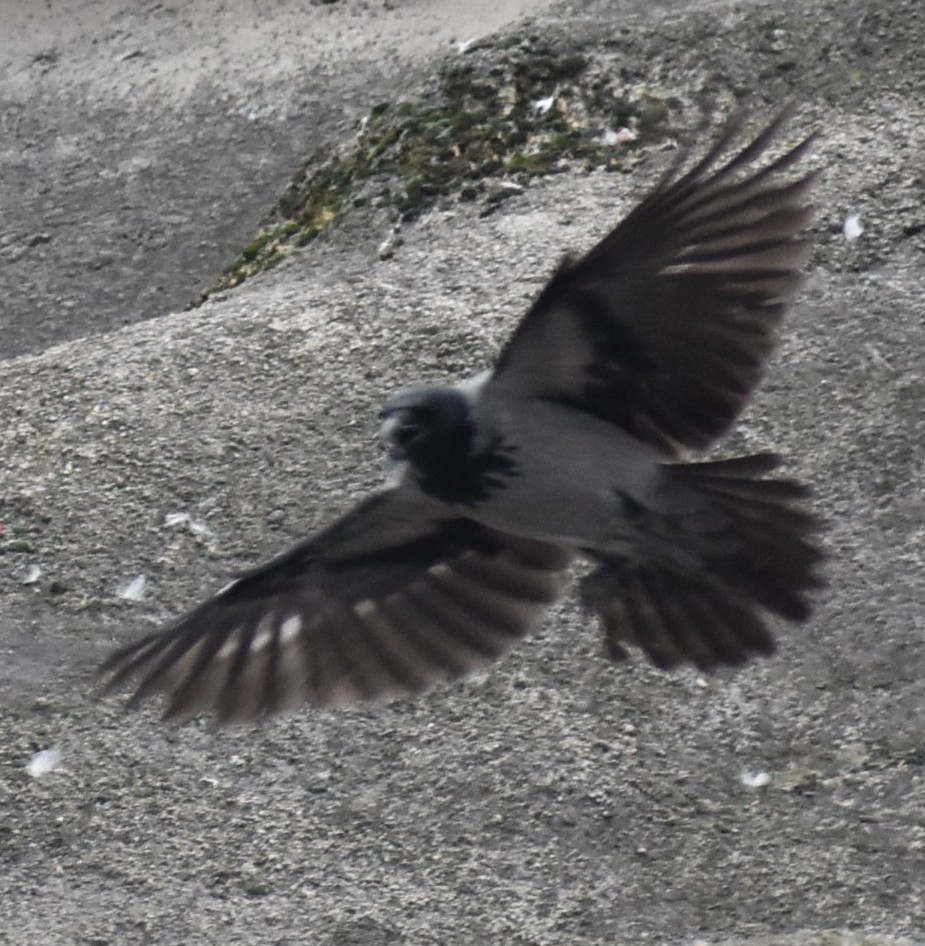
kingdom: Animalia
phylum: Chordata
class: Aves
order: Passeriformes
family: Corvidae
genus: Corvus
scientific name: Corvus cornix
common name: Hooded crow
